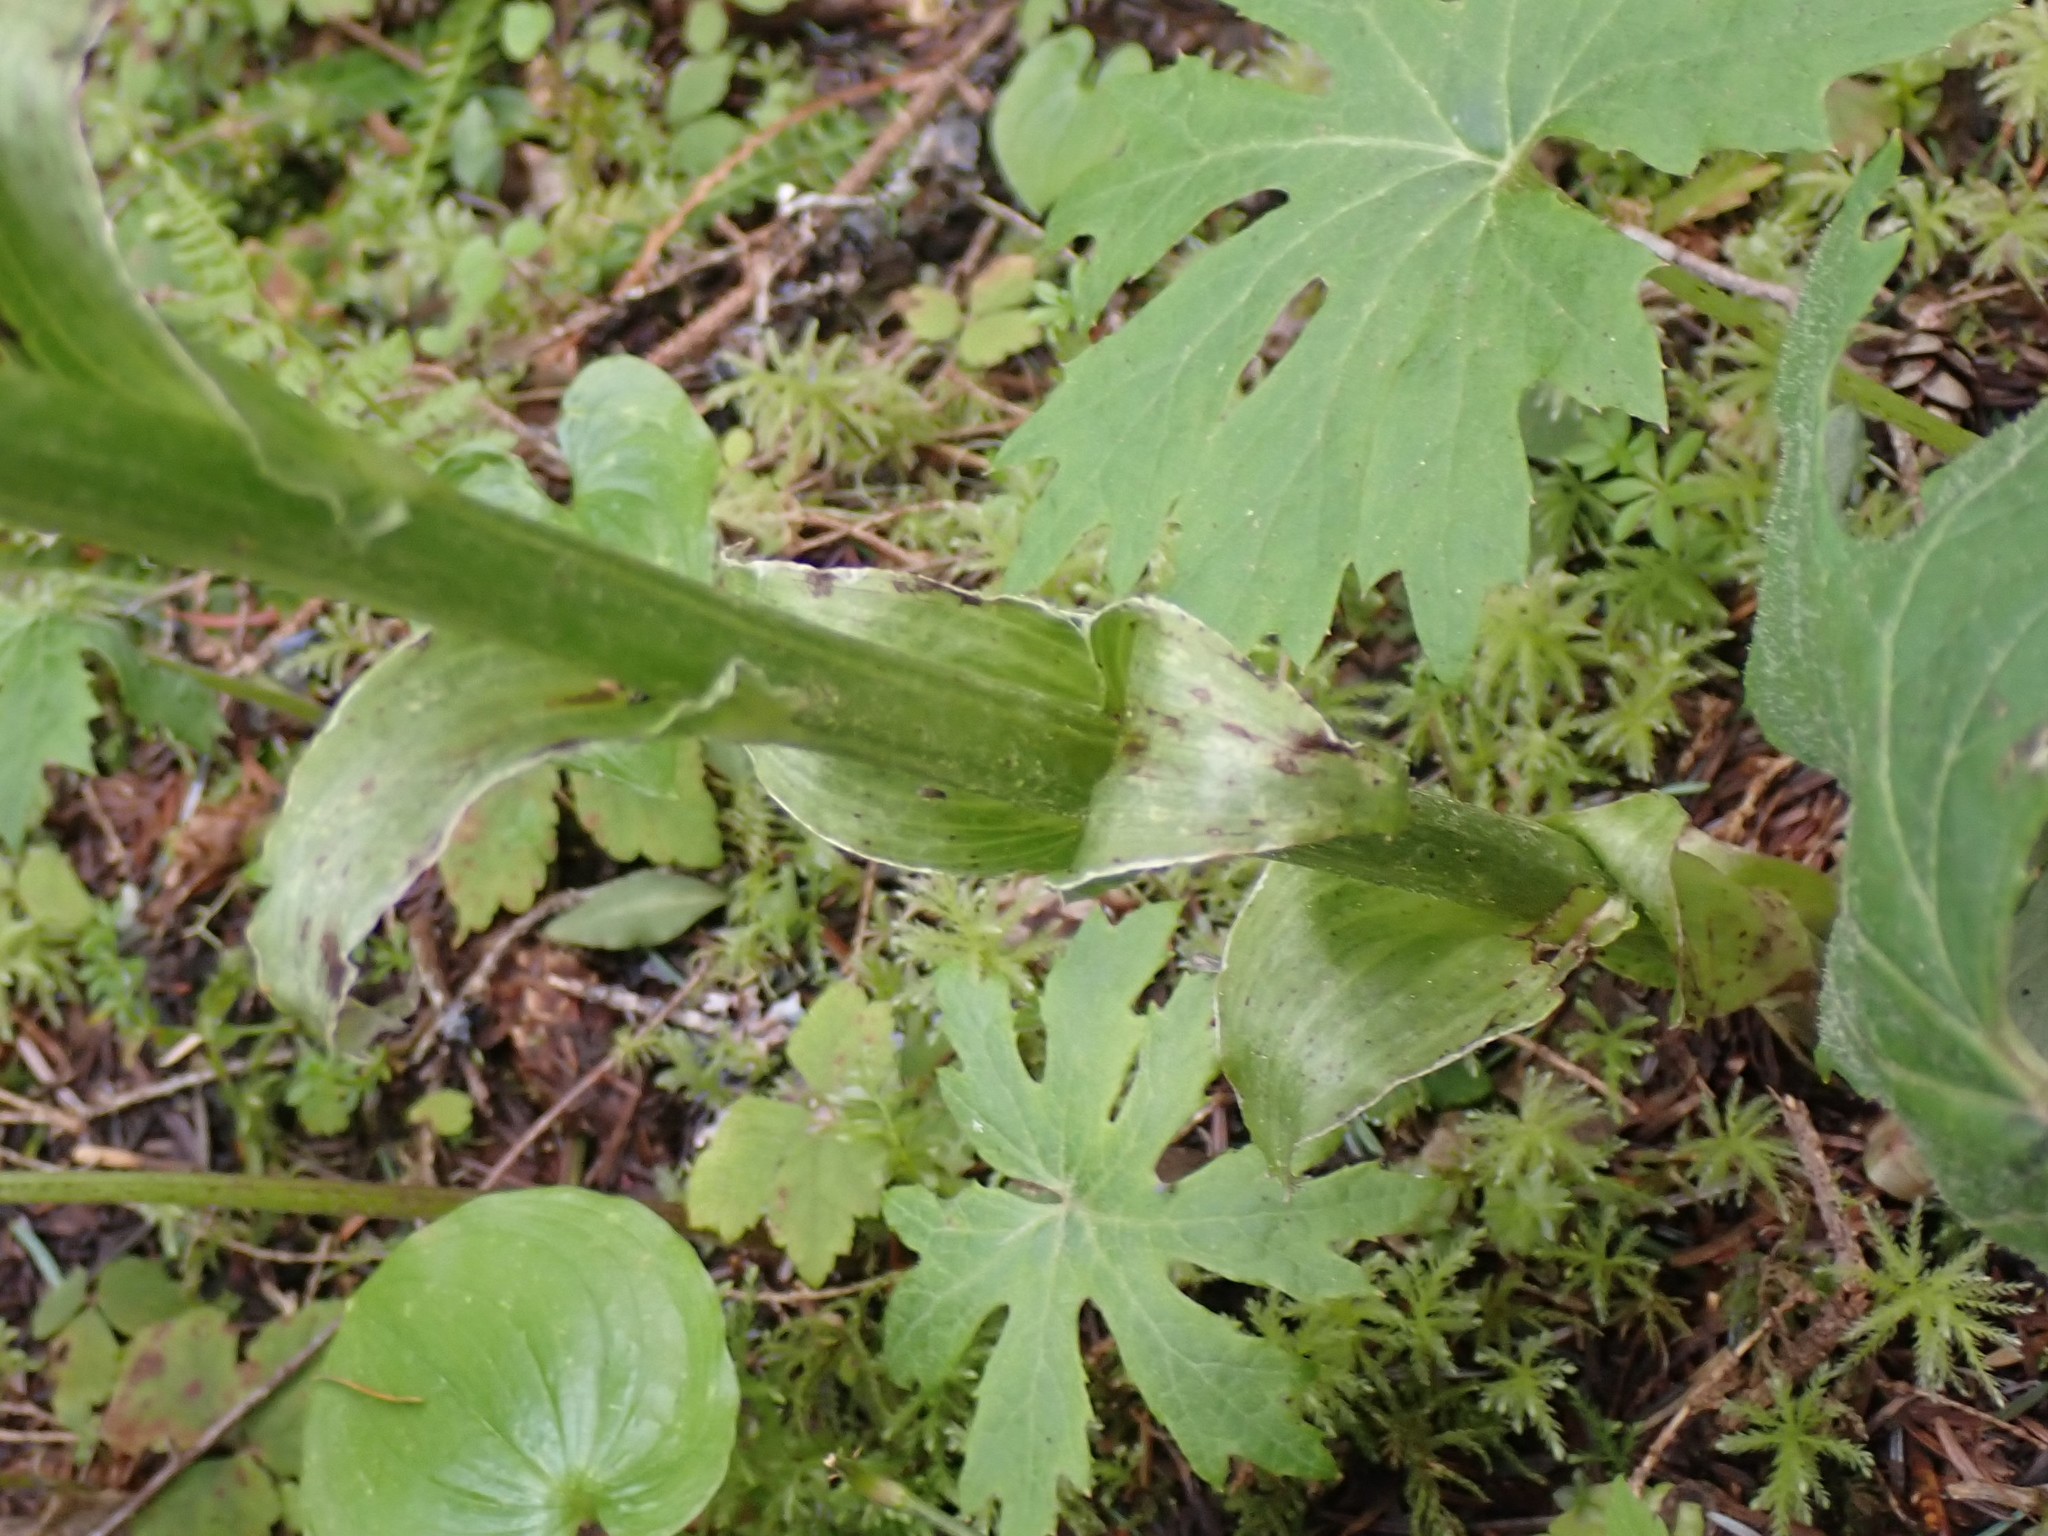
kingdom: Plantae
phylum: Tracheophyta
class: Magnoliopsida
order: Asterales
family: Asteraceae
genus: Petasites
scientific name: Petasites frigidus
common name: Arctic butterbur
